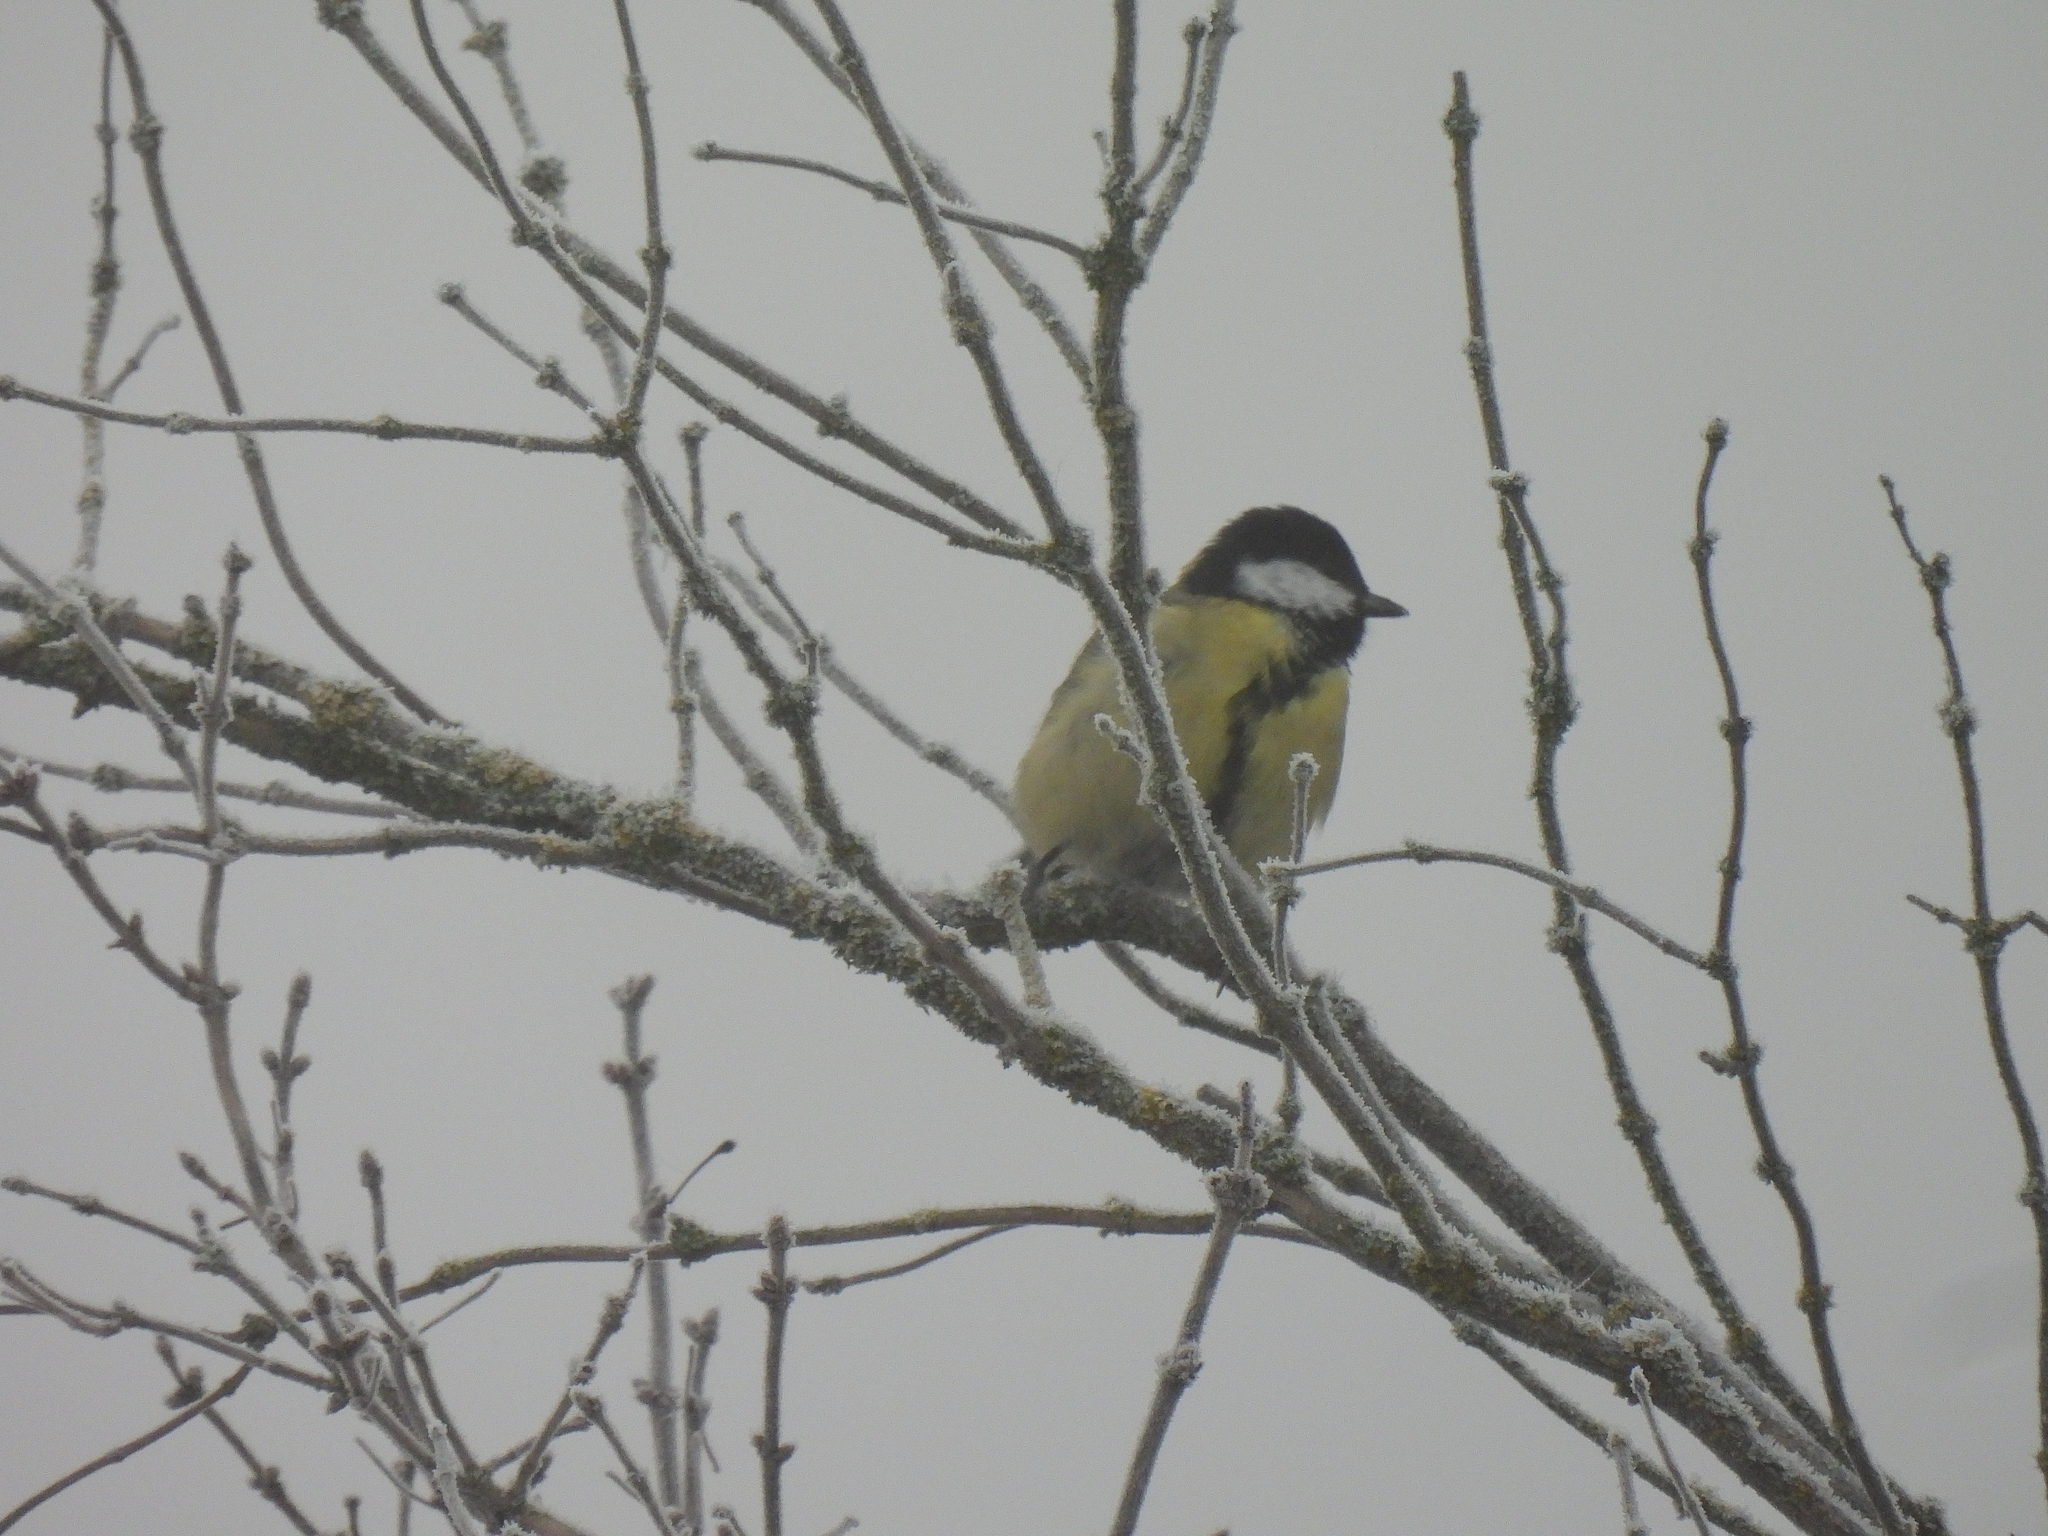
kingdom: Animalia
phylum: Chordata
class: Aves
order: Passeriformes
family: Paridae
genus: Parus
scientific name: Parus major
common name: Great tit
